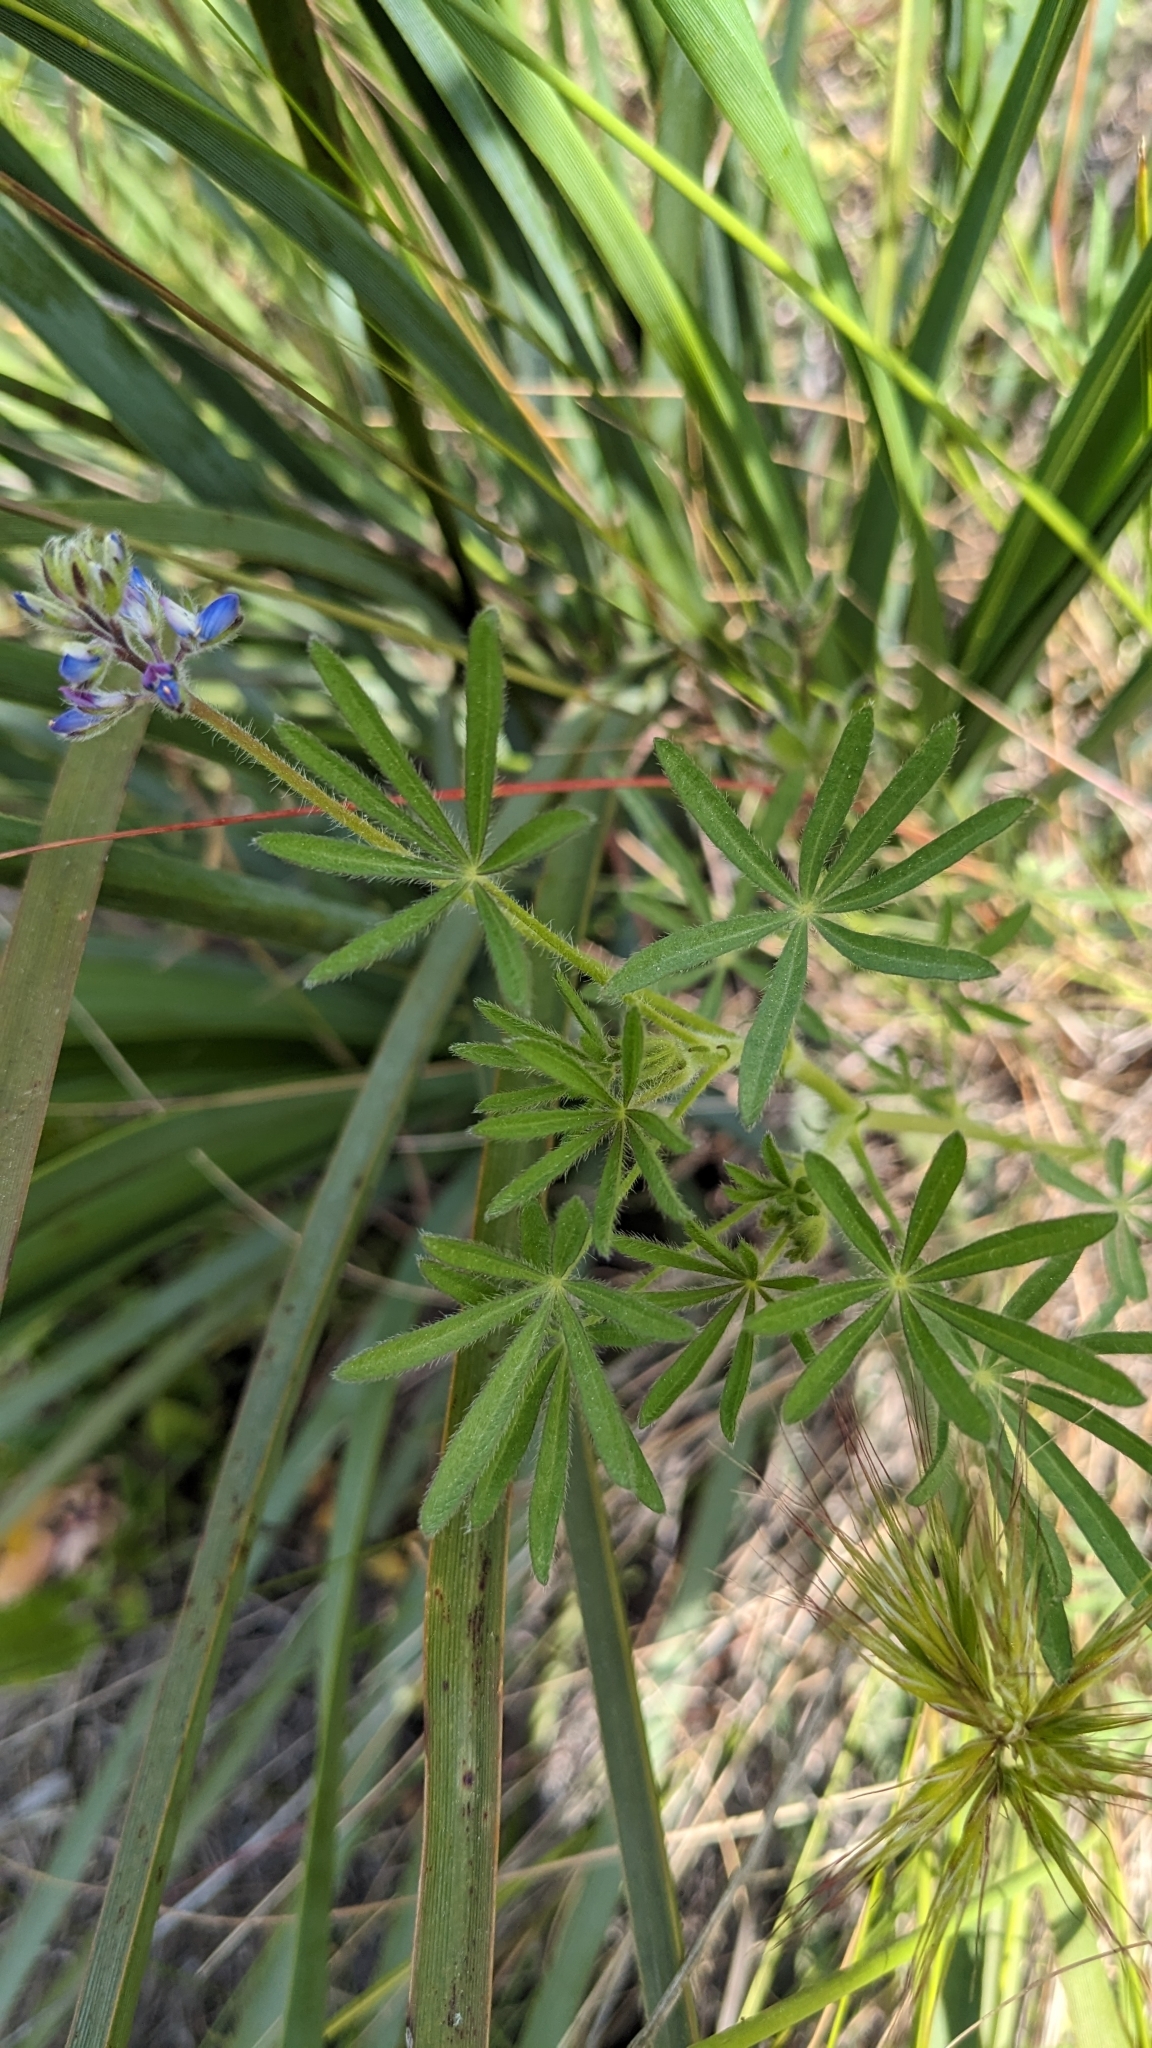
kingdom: Plantae
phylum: Tracheophyta
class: Magnoliopsida
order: Fabales
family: Fabaceae
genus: Lupinus
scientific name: Lupinus bicolor
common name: Miniature lupine
